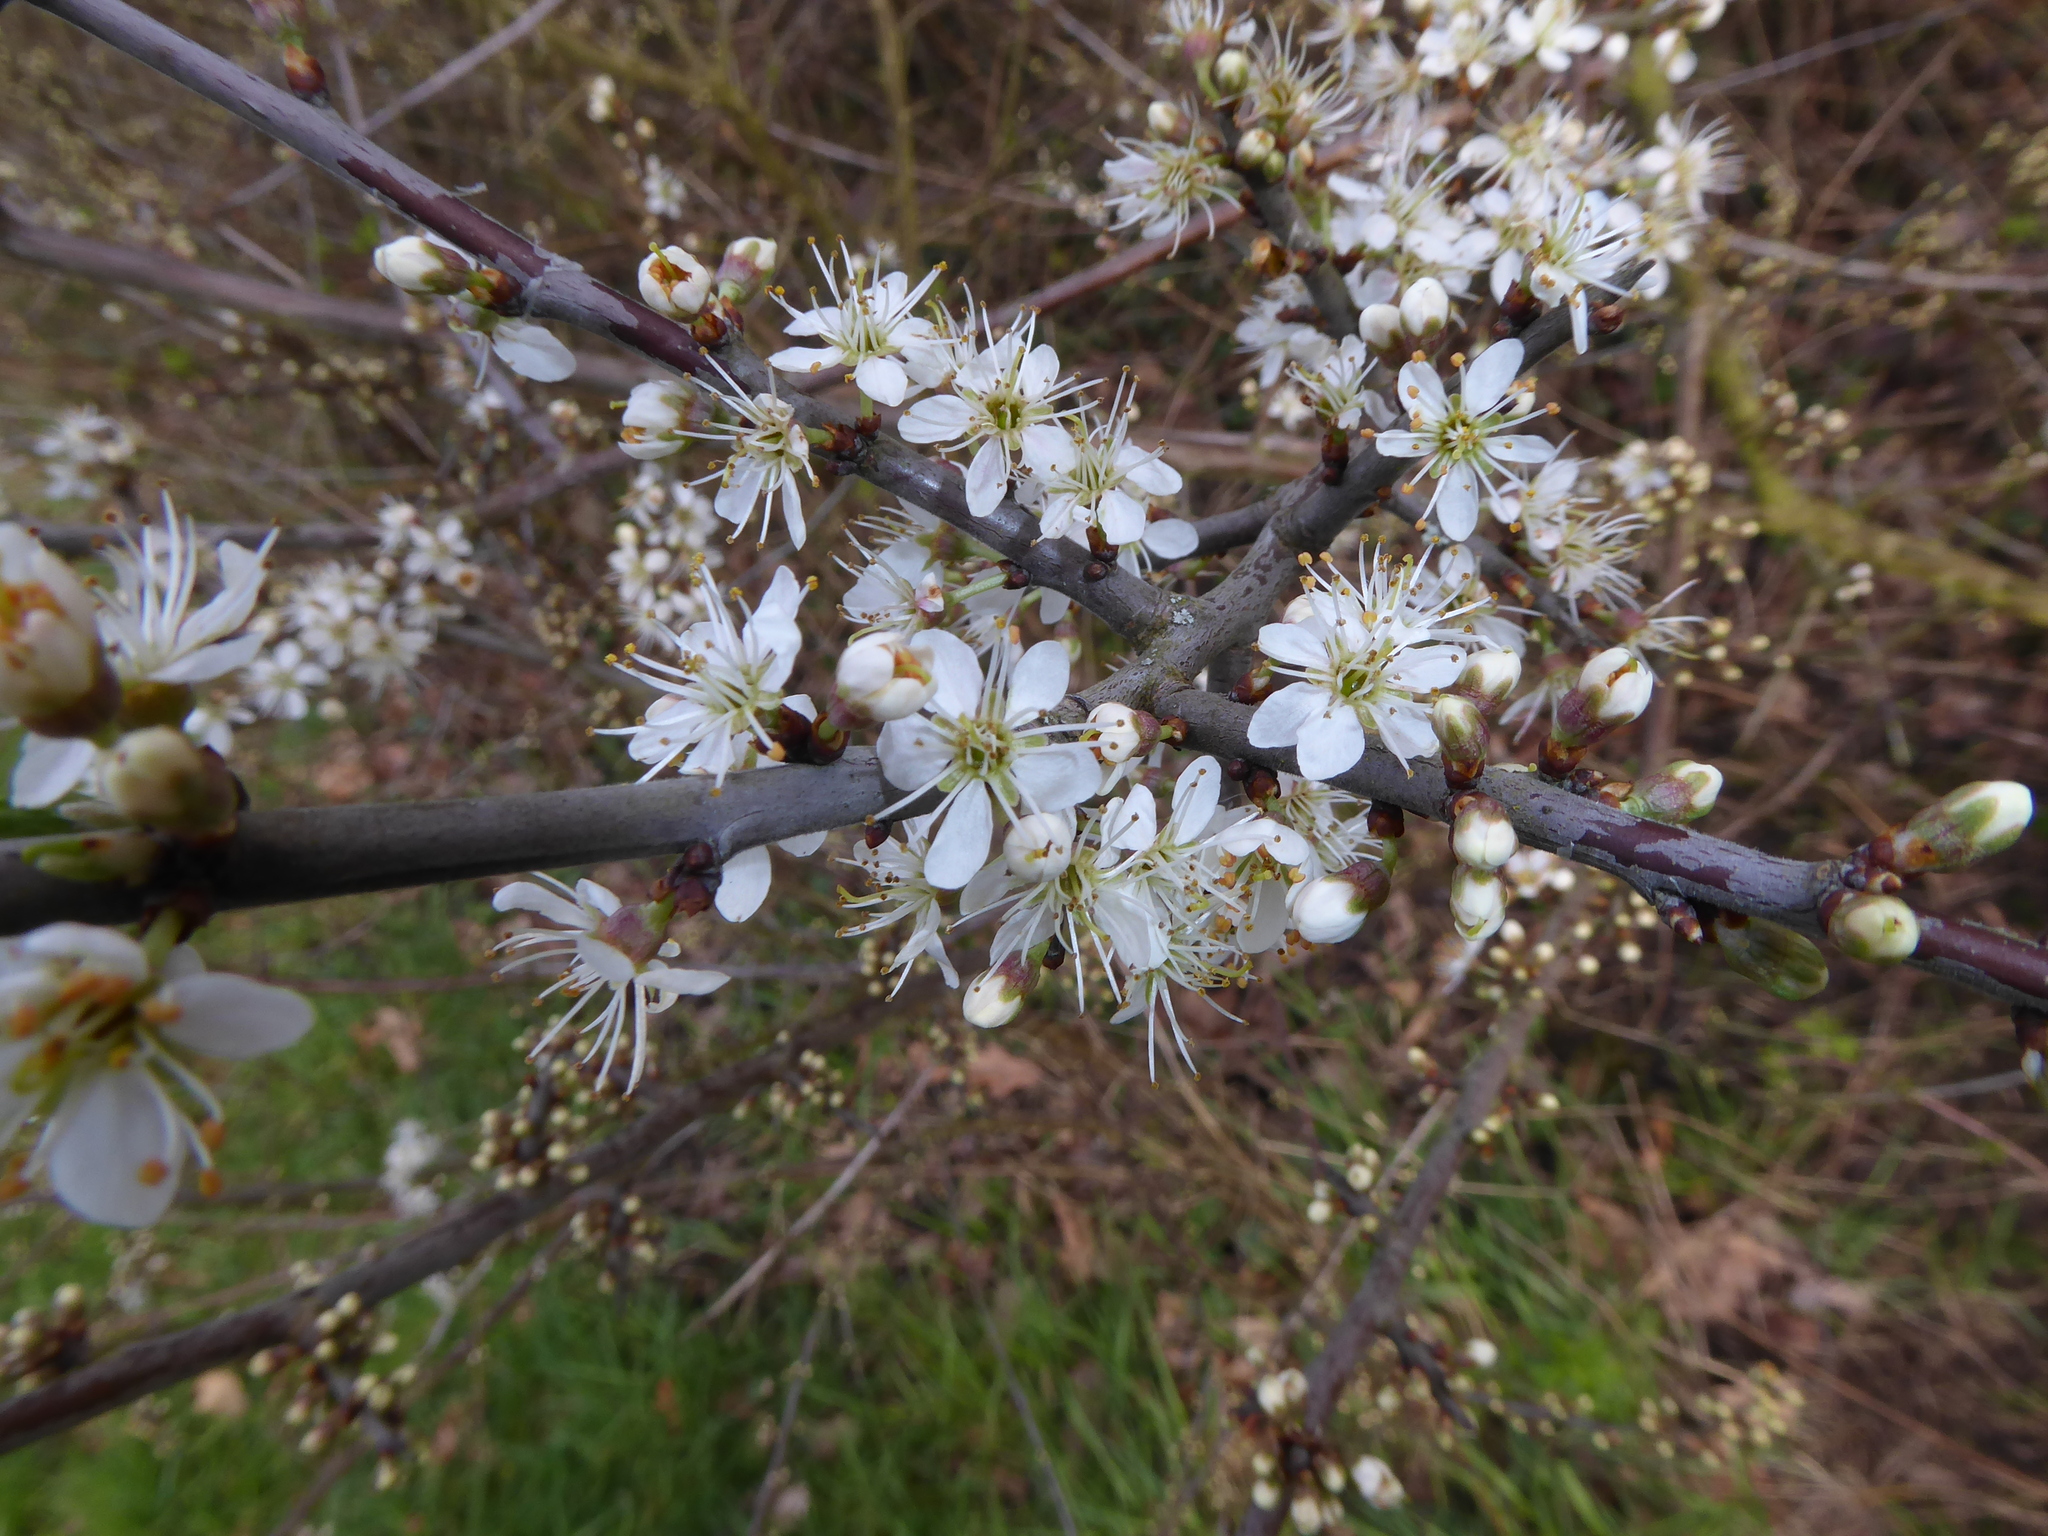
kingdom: Plantae
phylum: Tracheophyta
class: Magnoliopsida
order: Rosales
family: Rosaceae
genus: Prunus
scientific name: Prunus spinosa
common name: Blackthorn
